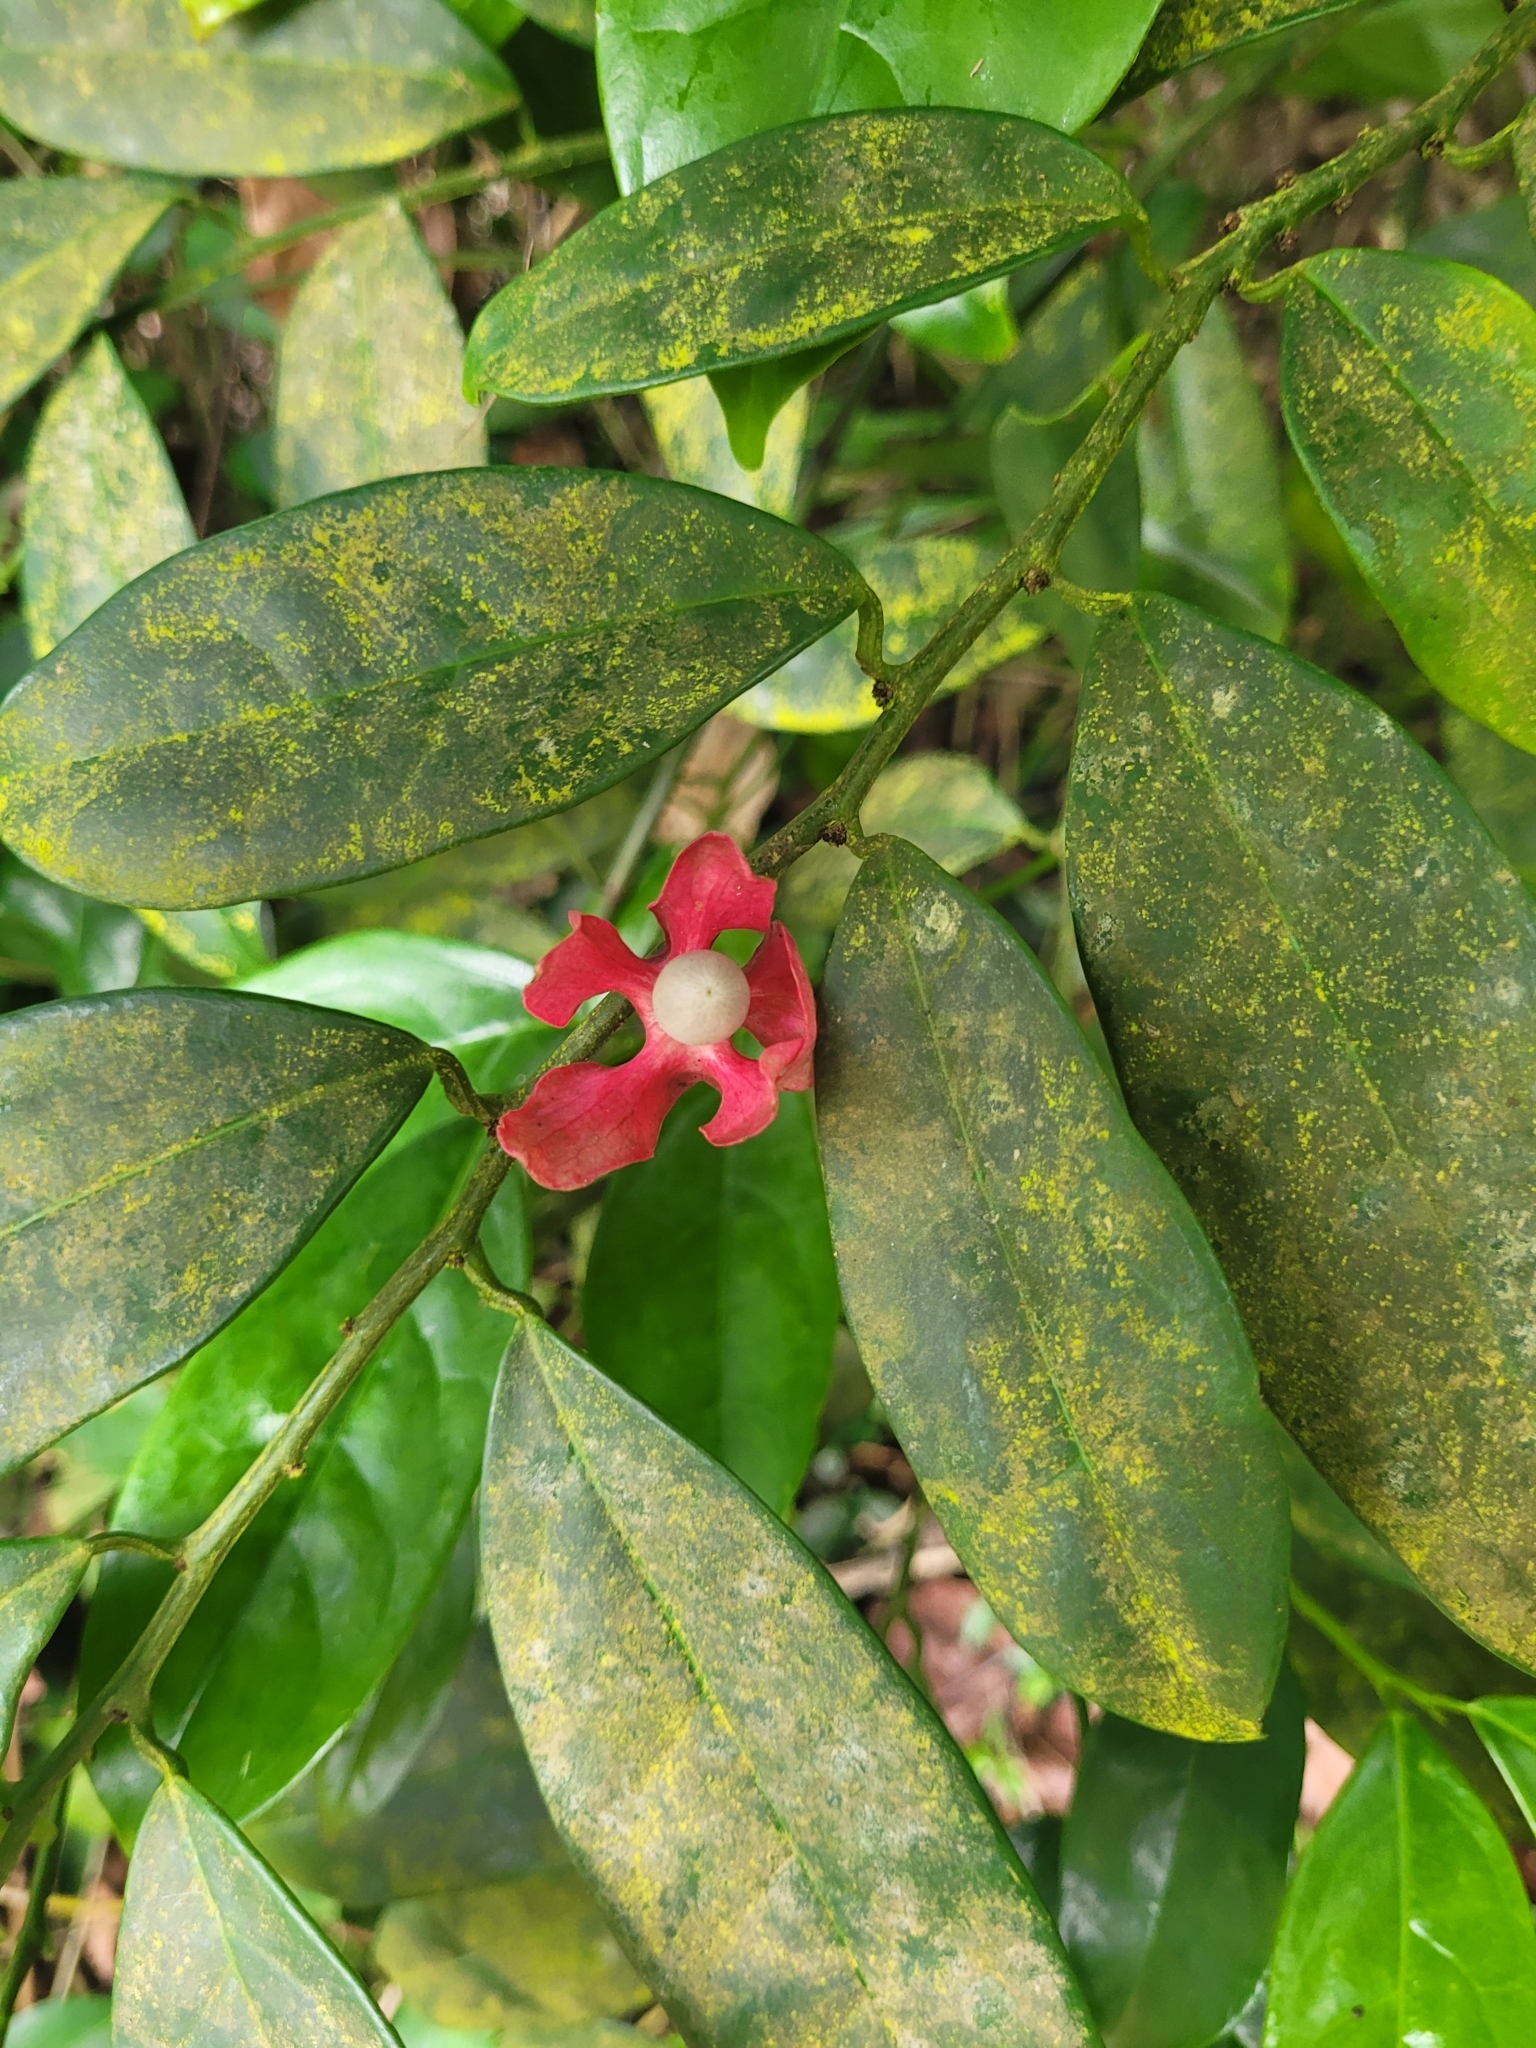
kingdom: Plantae
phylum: Tracheophyta
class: Magnoliopsida
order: Santalales
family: Erythropalaceae
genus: Heisteria
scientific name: Heisteria parvifolia
